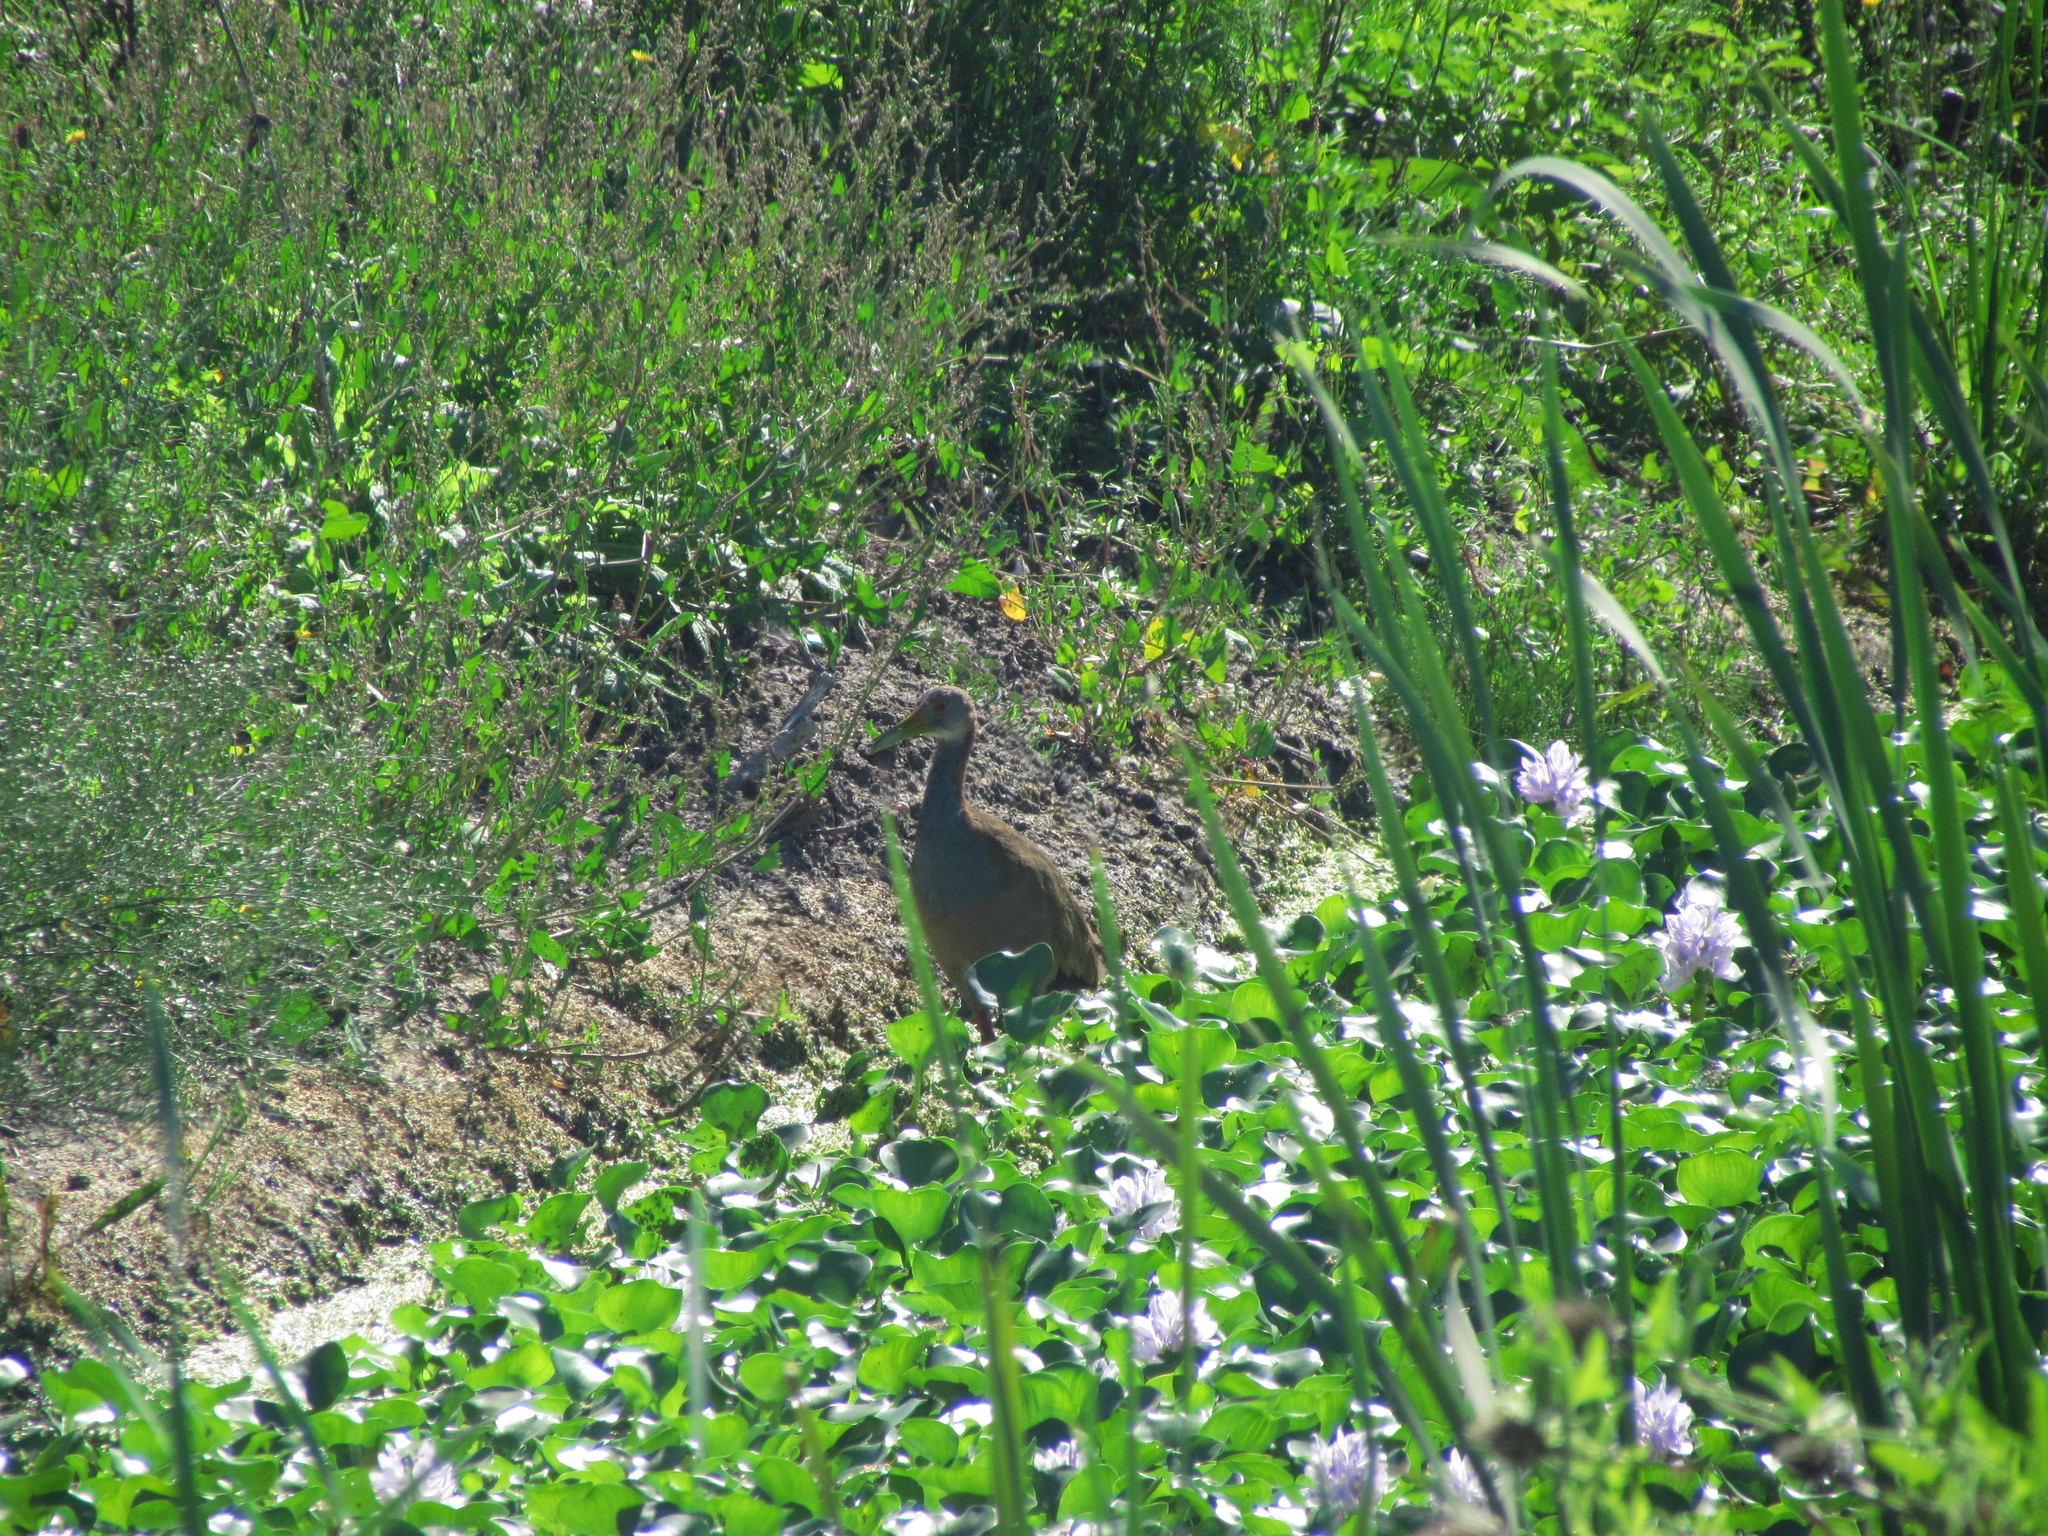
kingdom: Animalia
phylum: Chordata
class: Aves
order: Gruiformes
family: Rallidae
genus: Aramides
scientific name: Aramides ypecaha
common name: Giant wood rail
